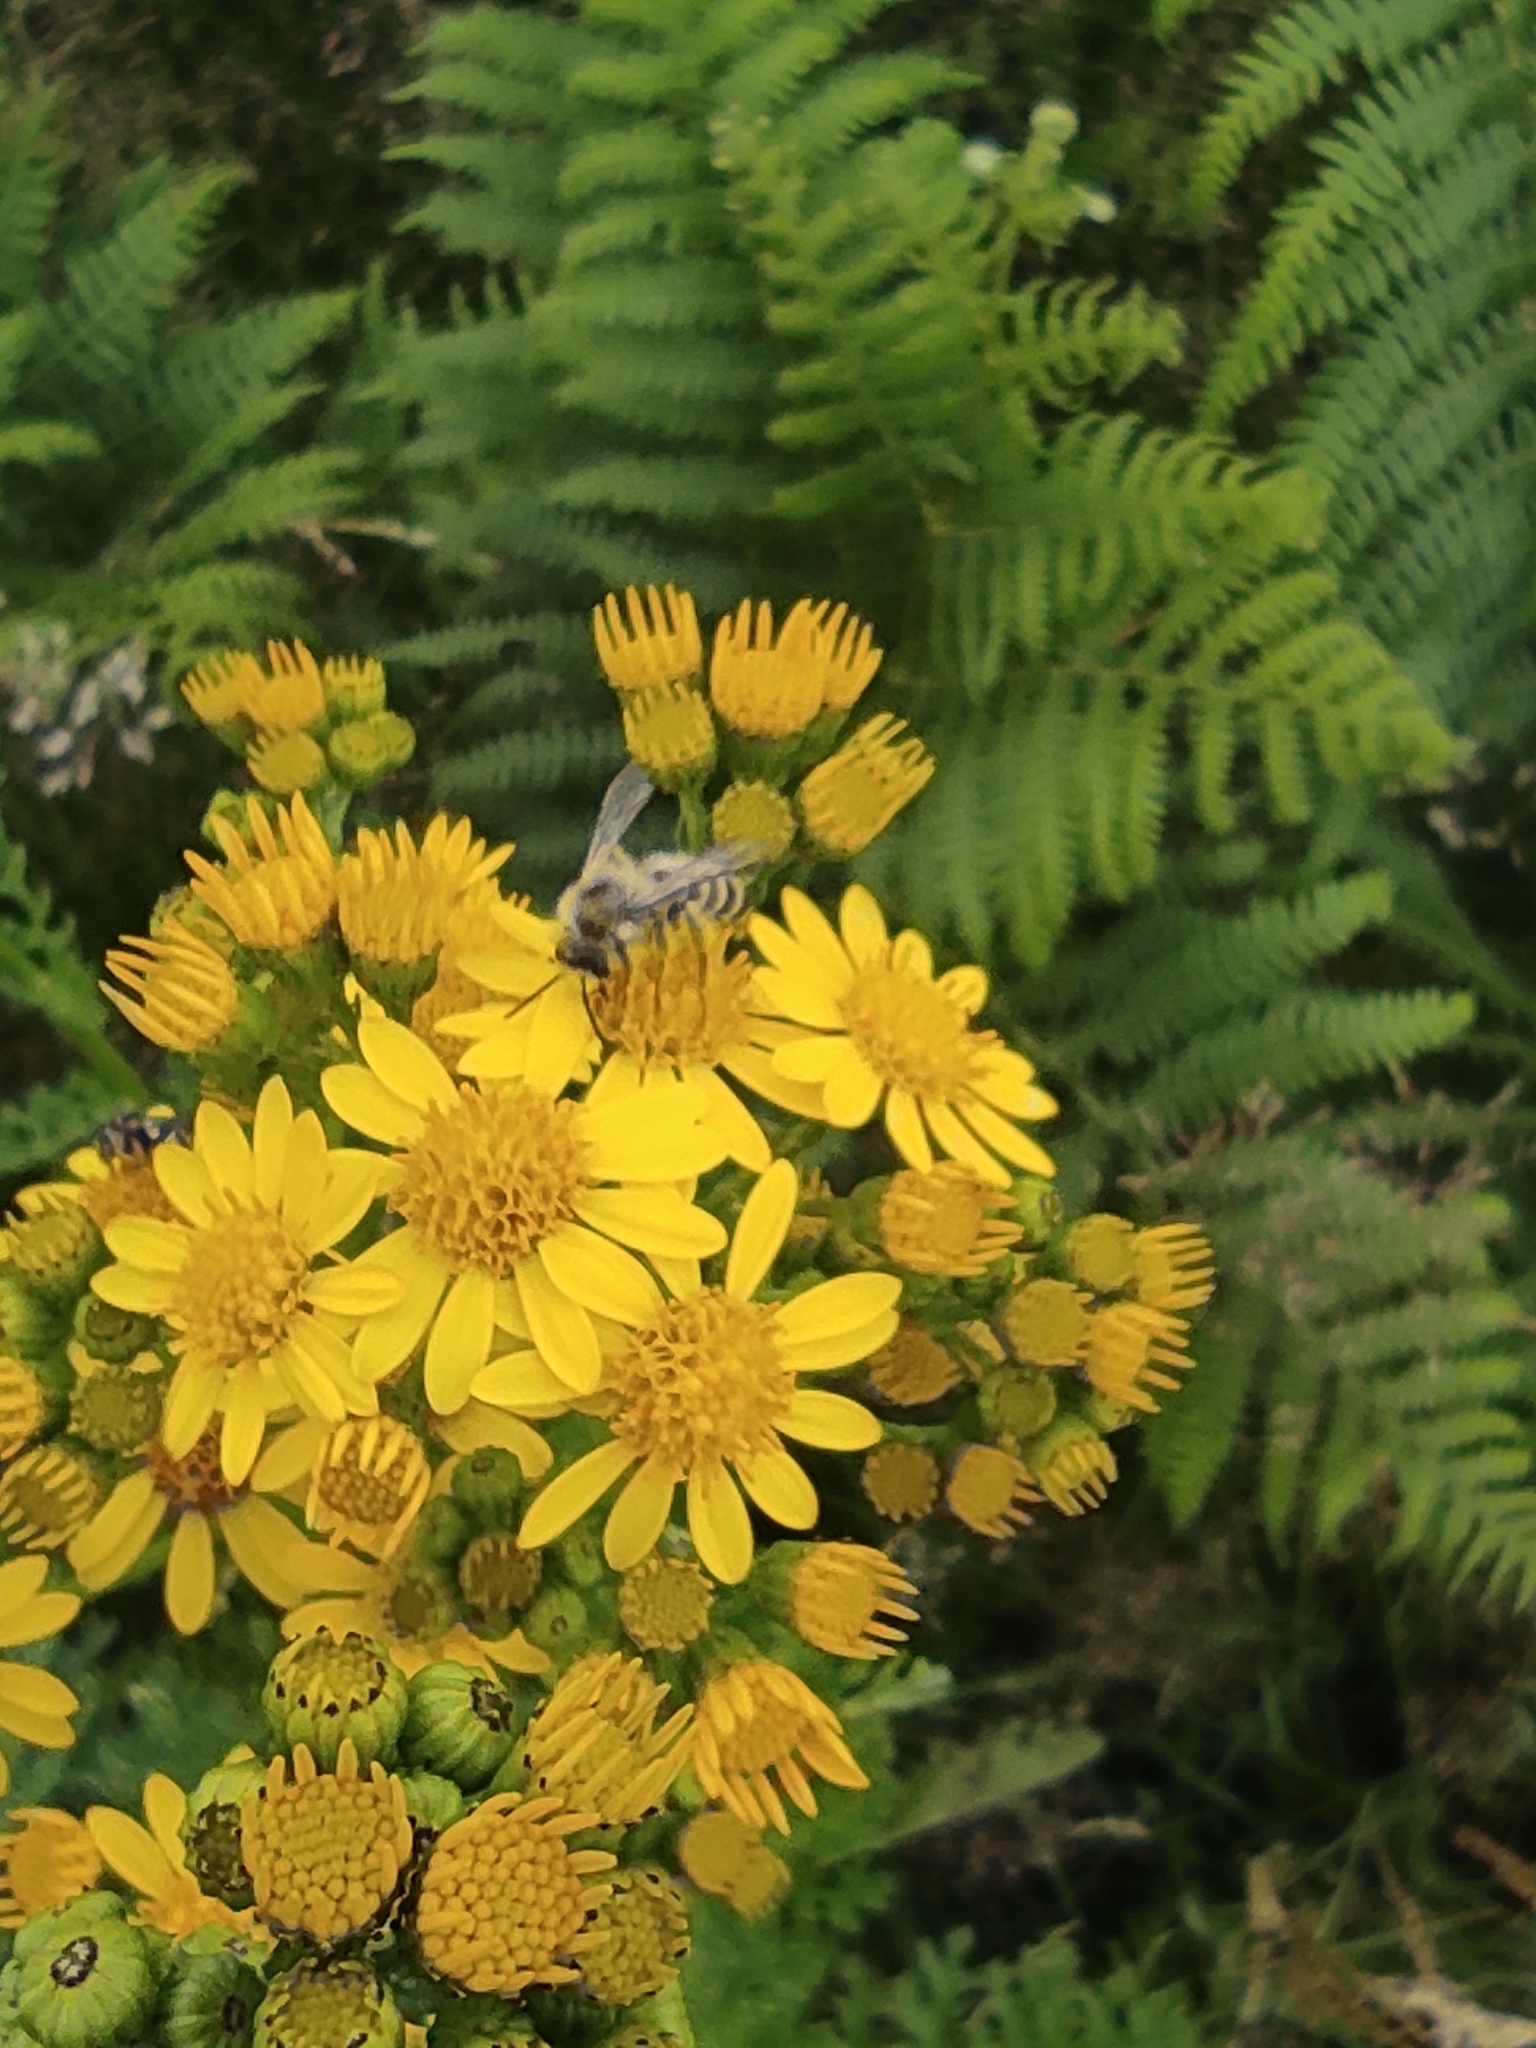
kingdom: Animalia
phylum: Arthropoda
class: Insecta
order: Hymenoptera
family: Melittidae
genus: Dasypoda
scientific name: Dasypoda hirtipes
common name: Pantaloon bee
